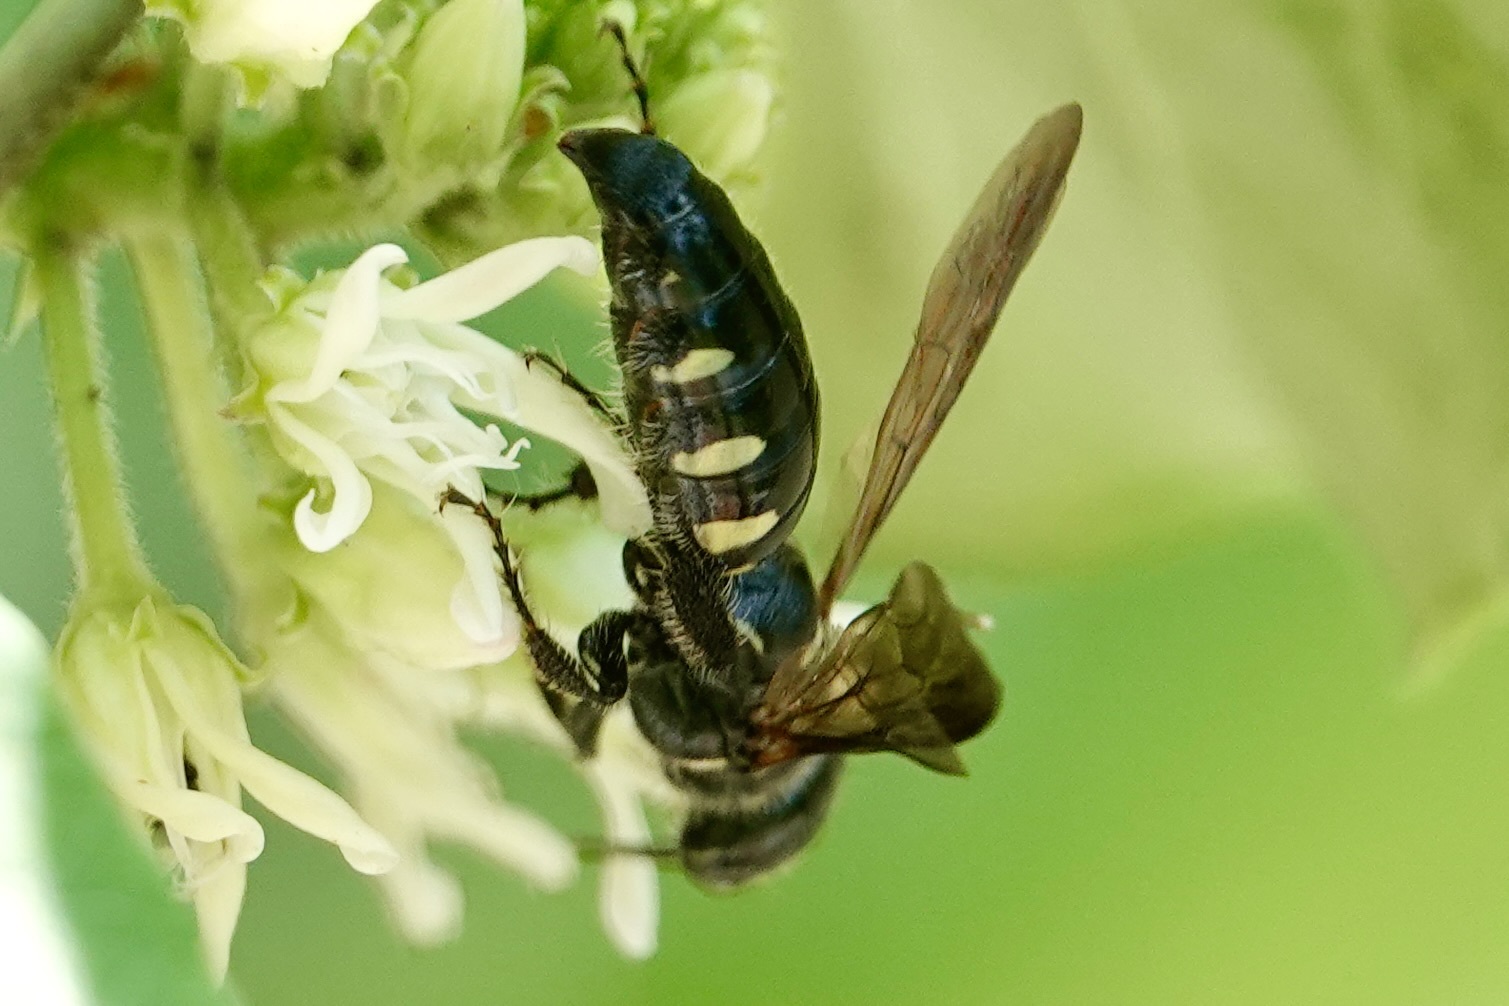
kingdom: Animalia
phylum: Arthropoda
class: Insecta
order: Hymenoptera
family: Tiphiidae
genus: Myzinum
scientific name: Myzinum obscurum
